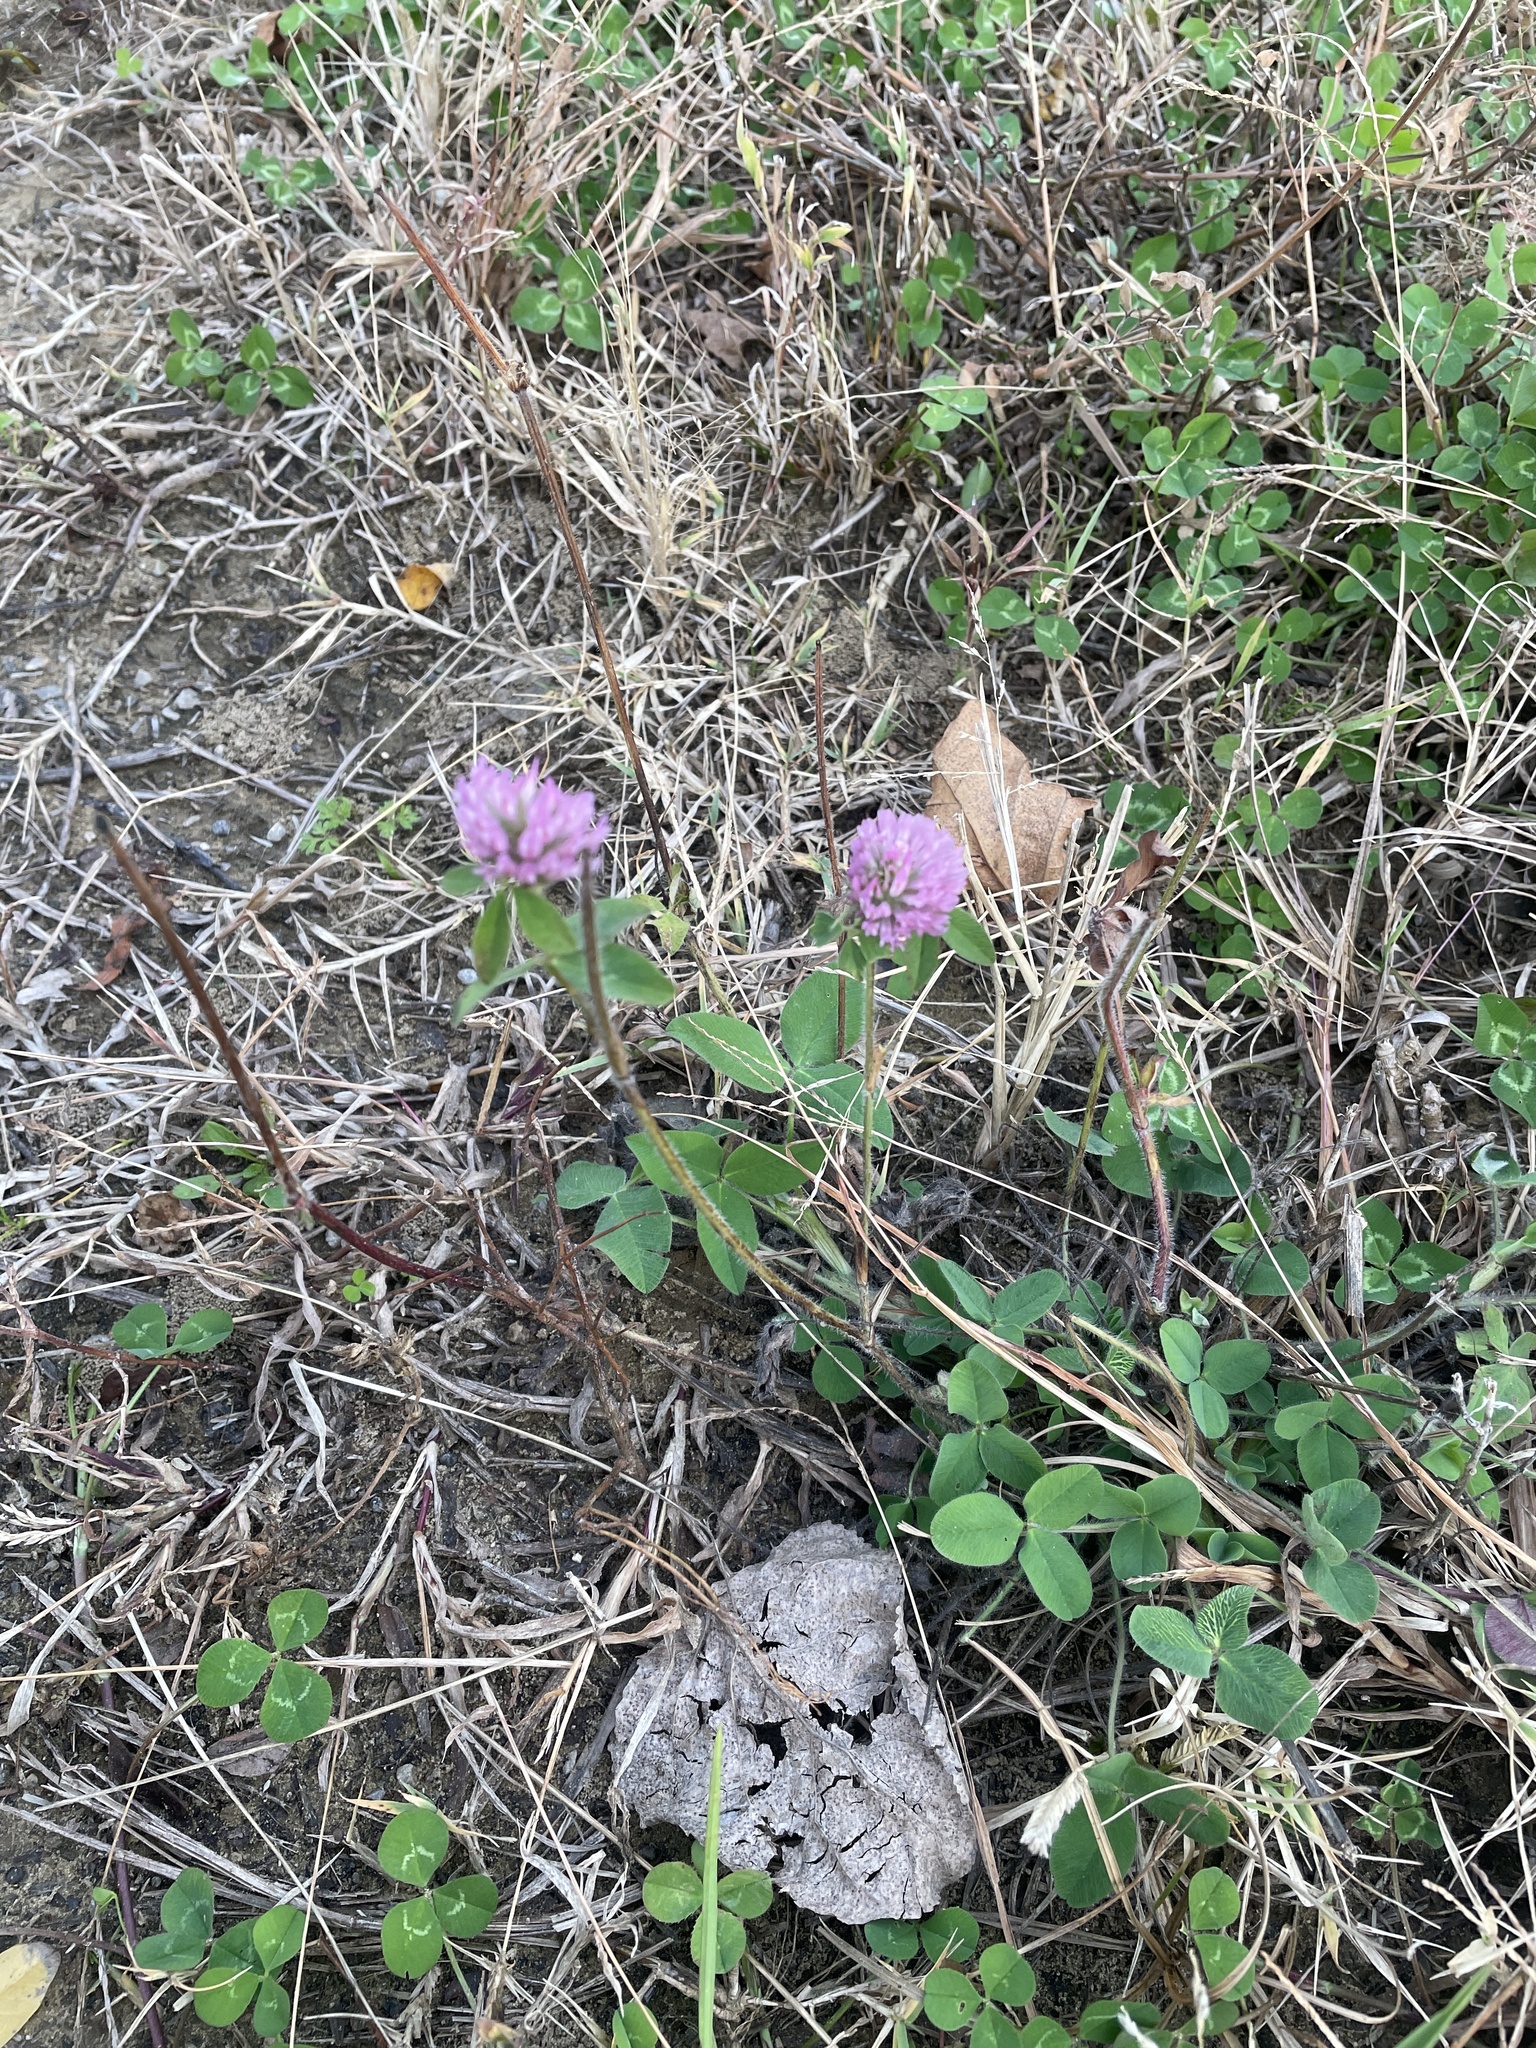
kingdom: Plantae
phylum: Tracheophyta
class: Magnoliopsida
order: Fabales
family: Fabaceae
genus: Trifolium
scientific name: Trifolium pratense
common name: Red clover
